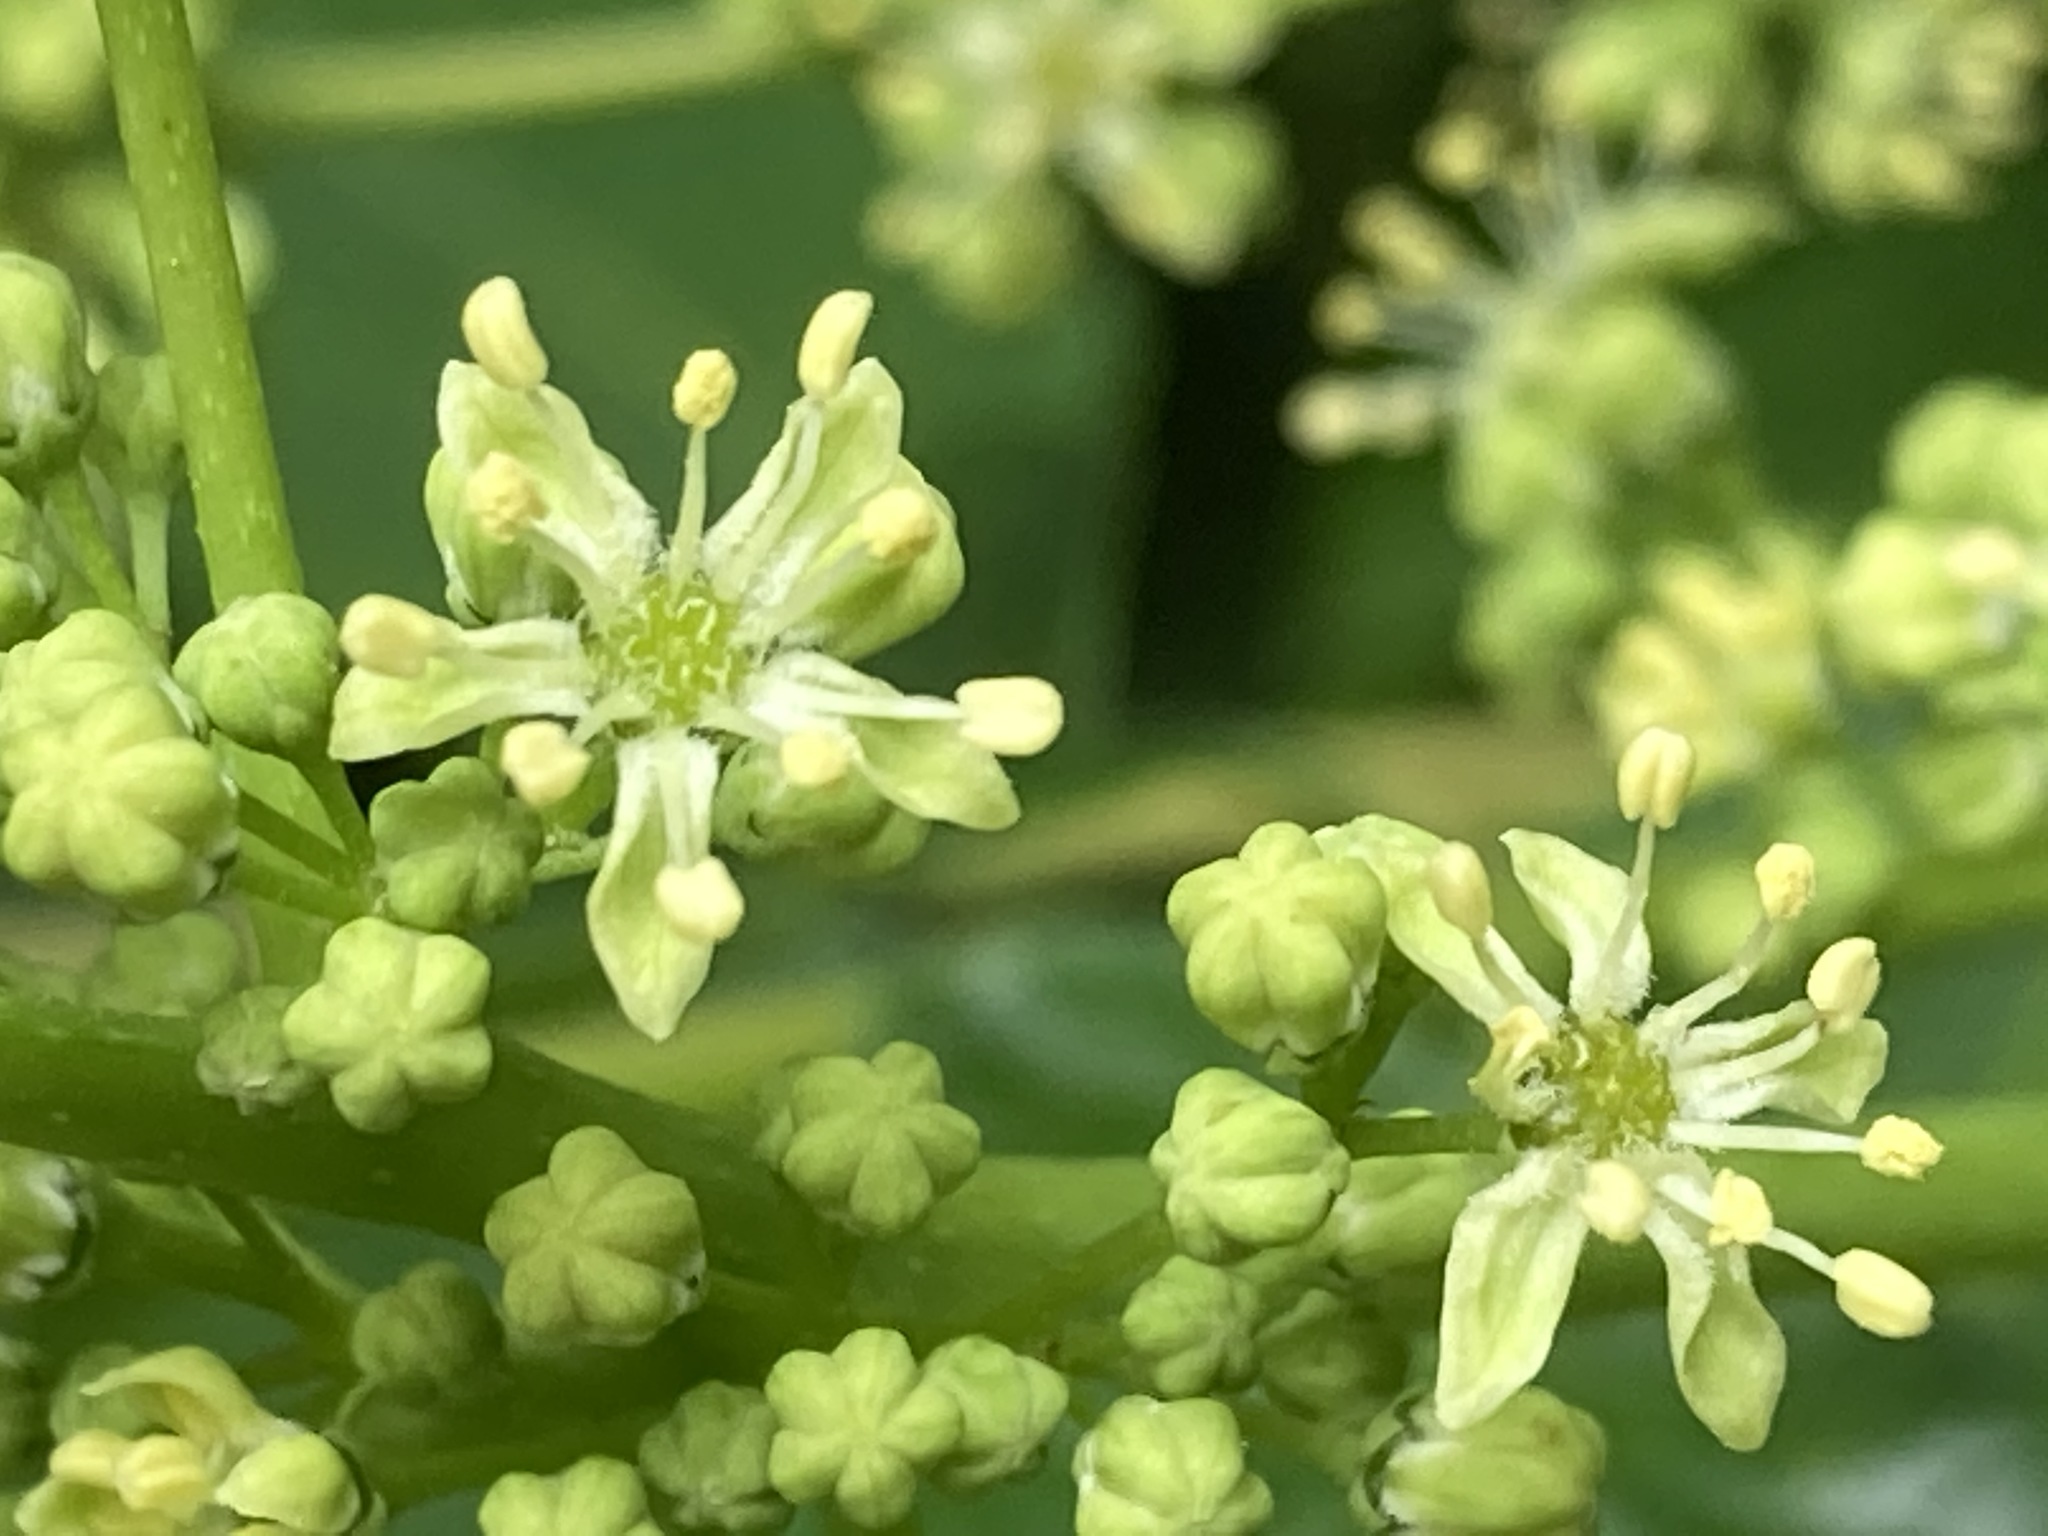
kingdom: Plantae
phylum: Tracheophyta
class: Magnoliopsida
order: Sapindales
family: Simaroubaceae
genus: Ailanthus
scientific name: Ailanthus altissima
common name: Tree-of-heaven
